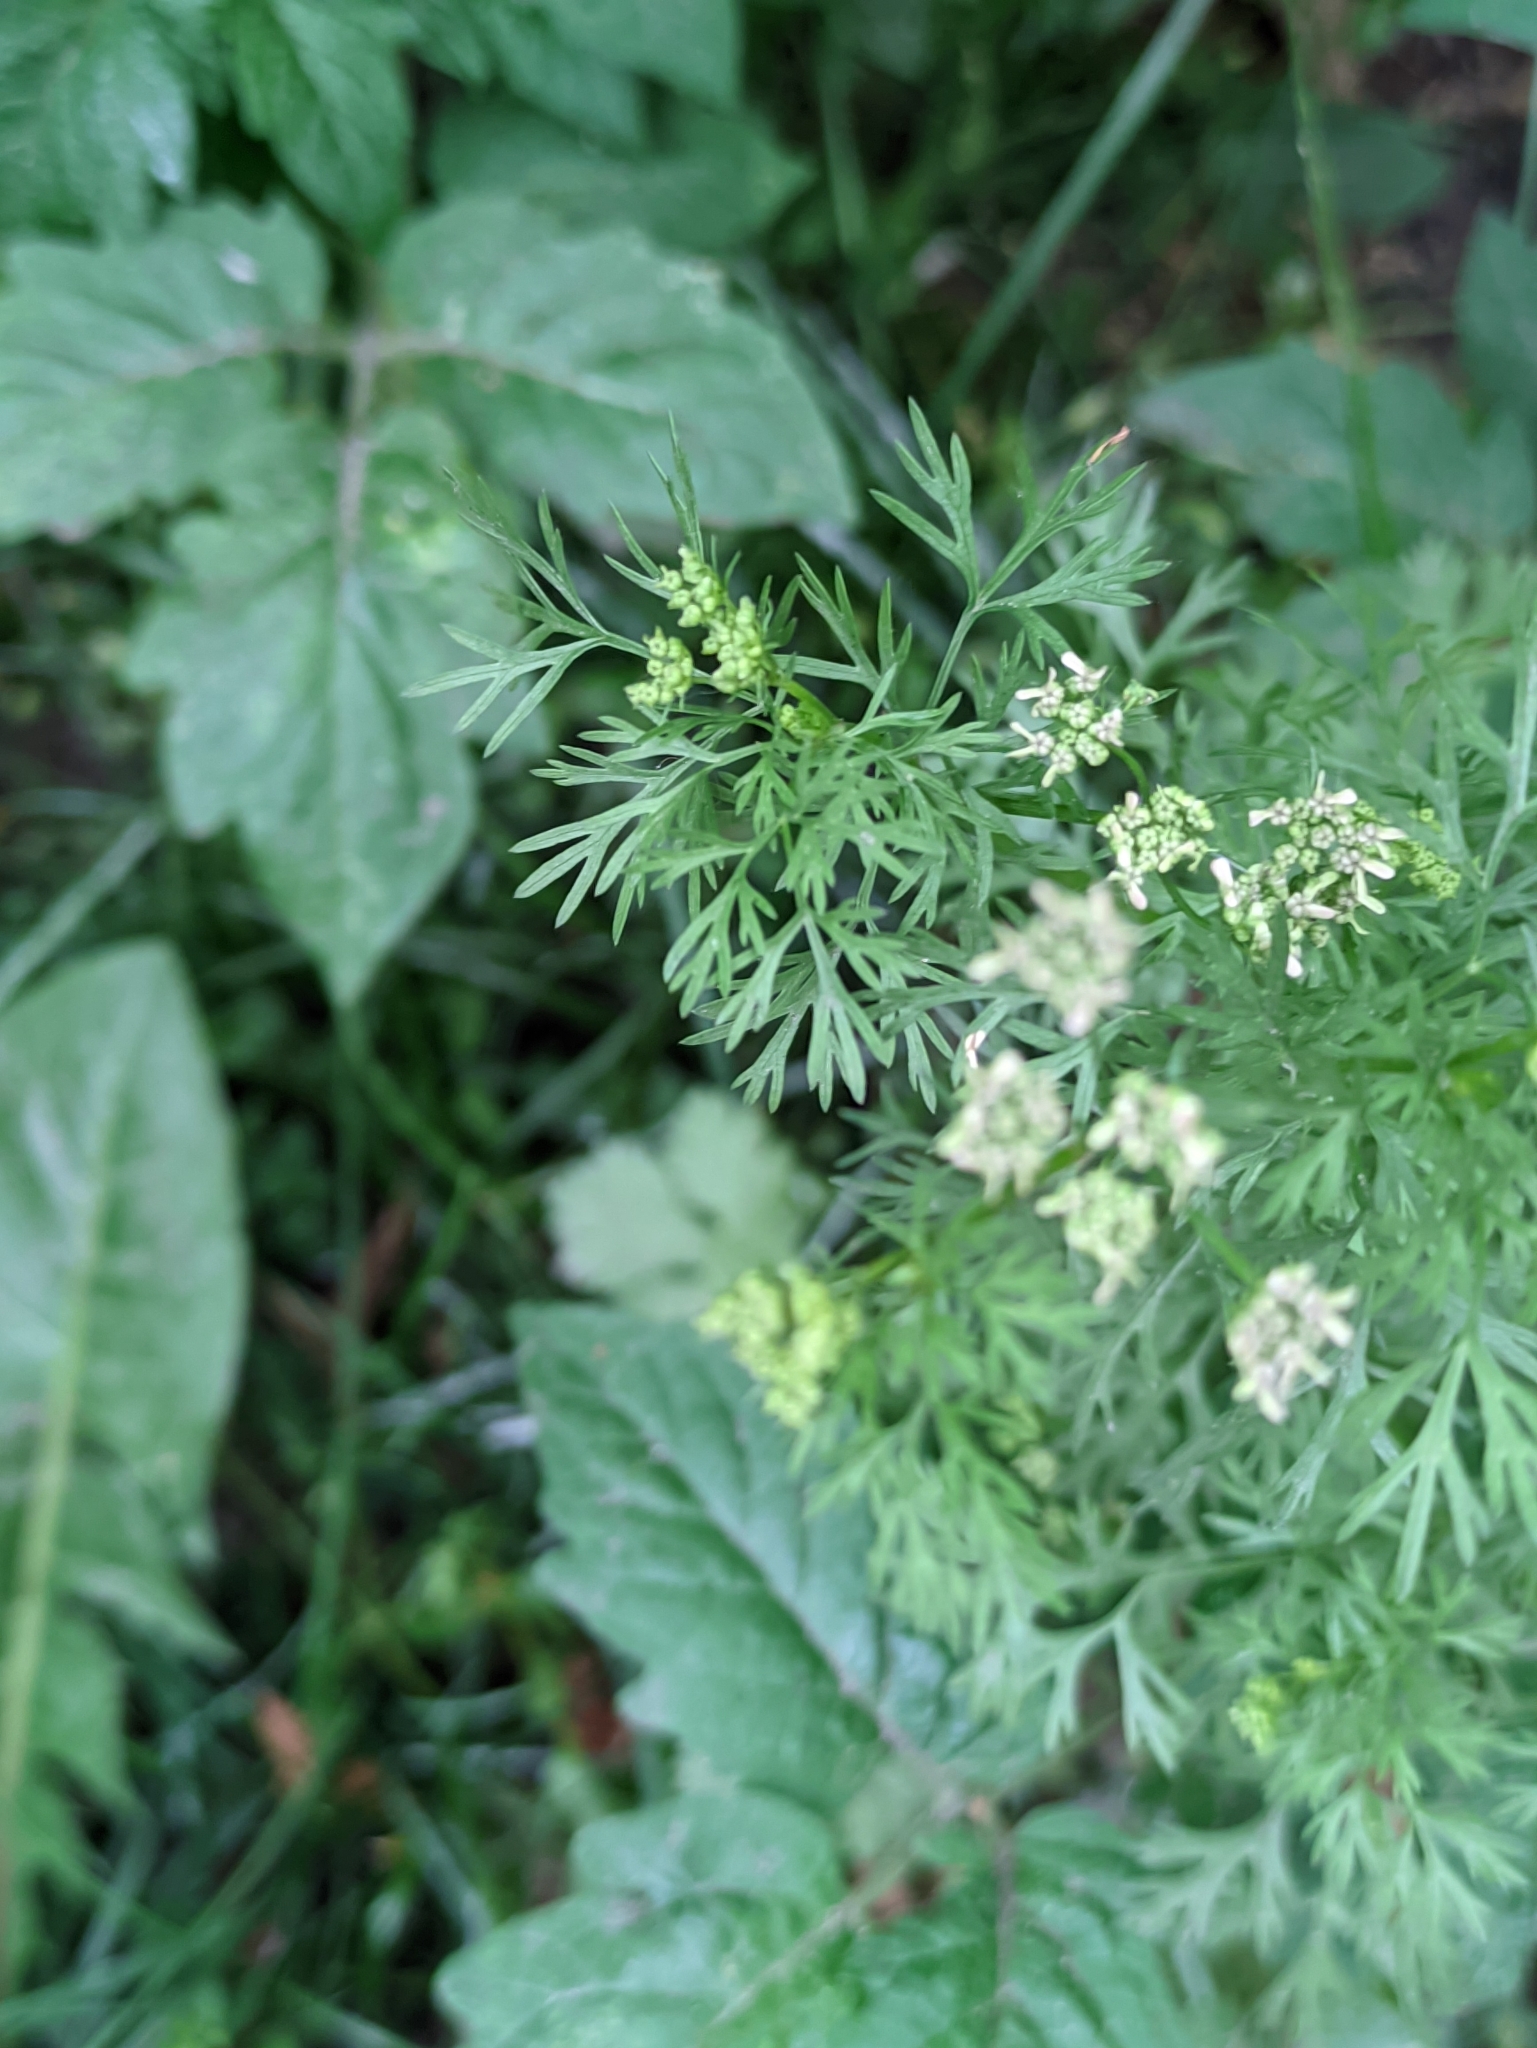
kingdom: Plantae
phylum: Tracheophyta
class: Magnoliopsida
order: Apiales
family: Apiaceae
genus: Coriandrum
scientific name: Coriandrum sativum
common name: Coriander
